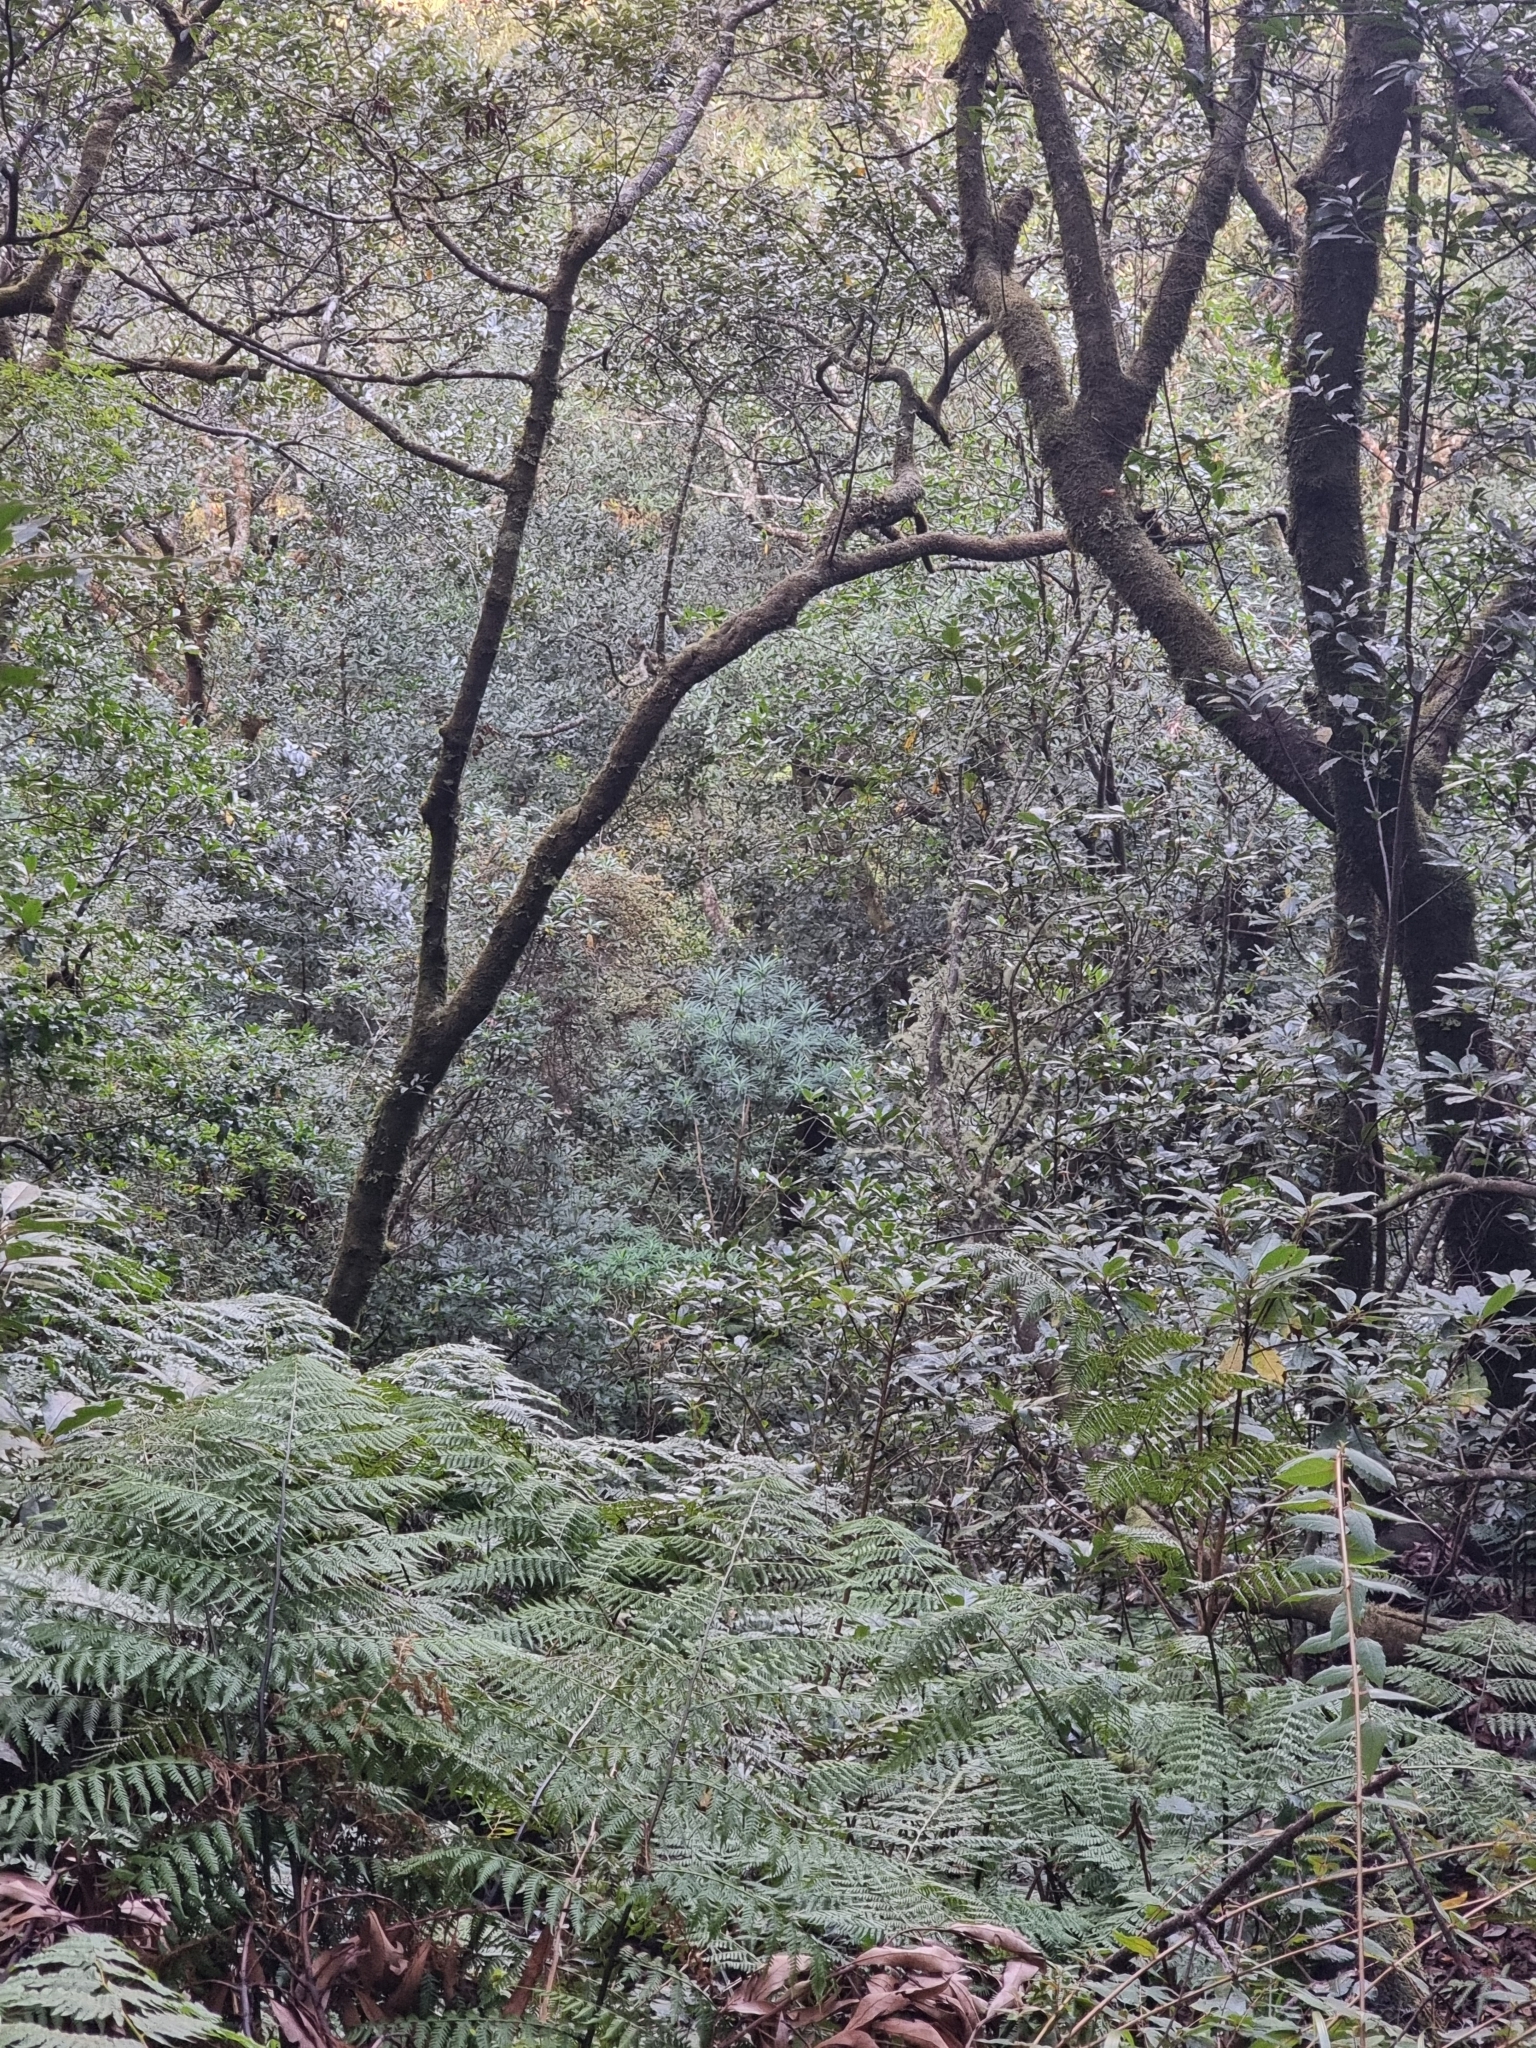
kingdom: Plantae
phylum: Tracheophyta
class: Magnoliopsida
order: Malpighiales
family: Euphorbiaceae
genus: Euphorbia
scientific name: Euphorbia mellifera
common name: Canary spurge
